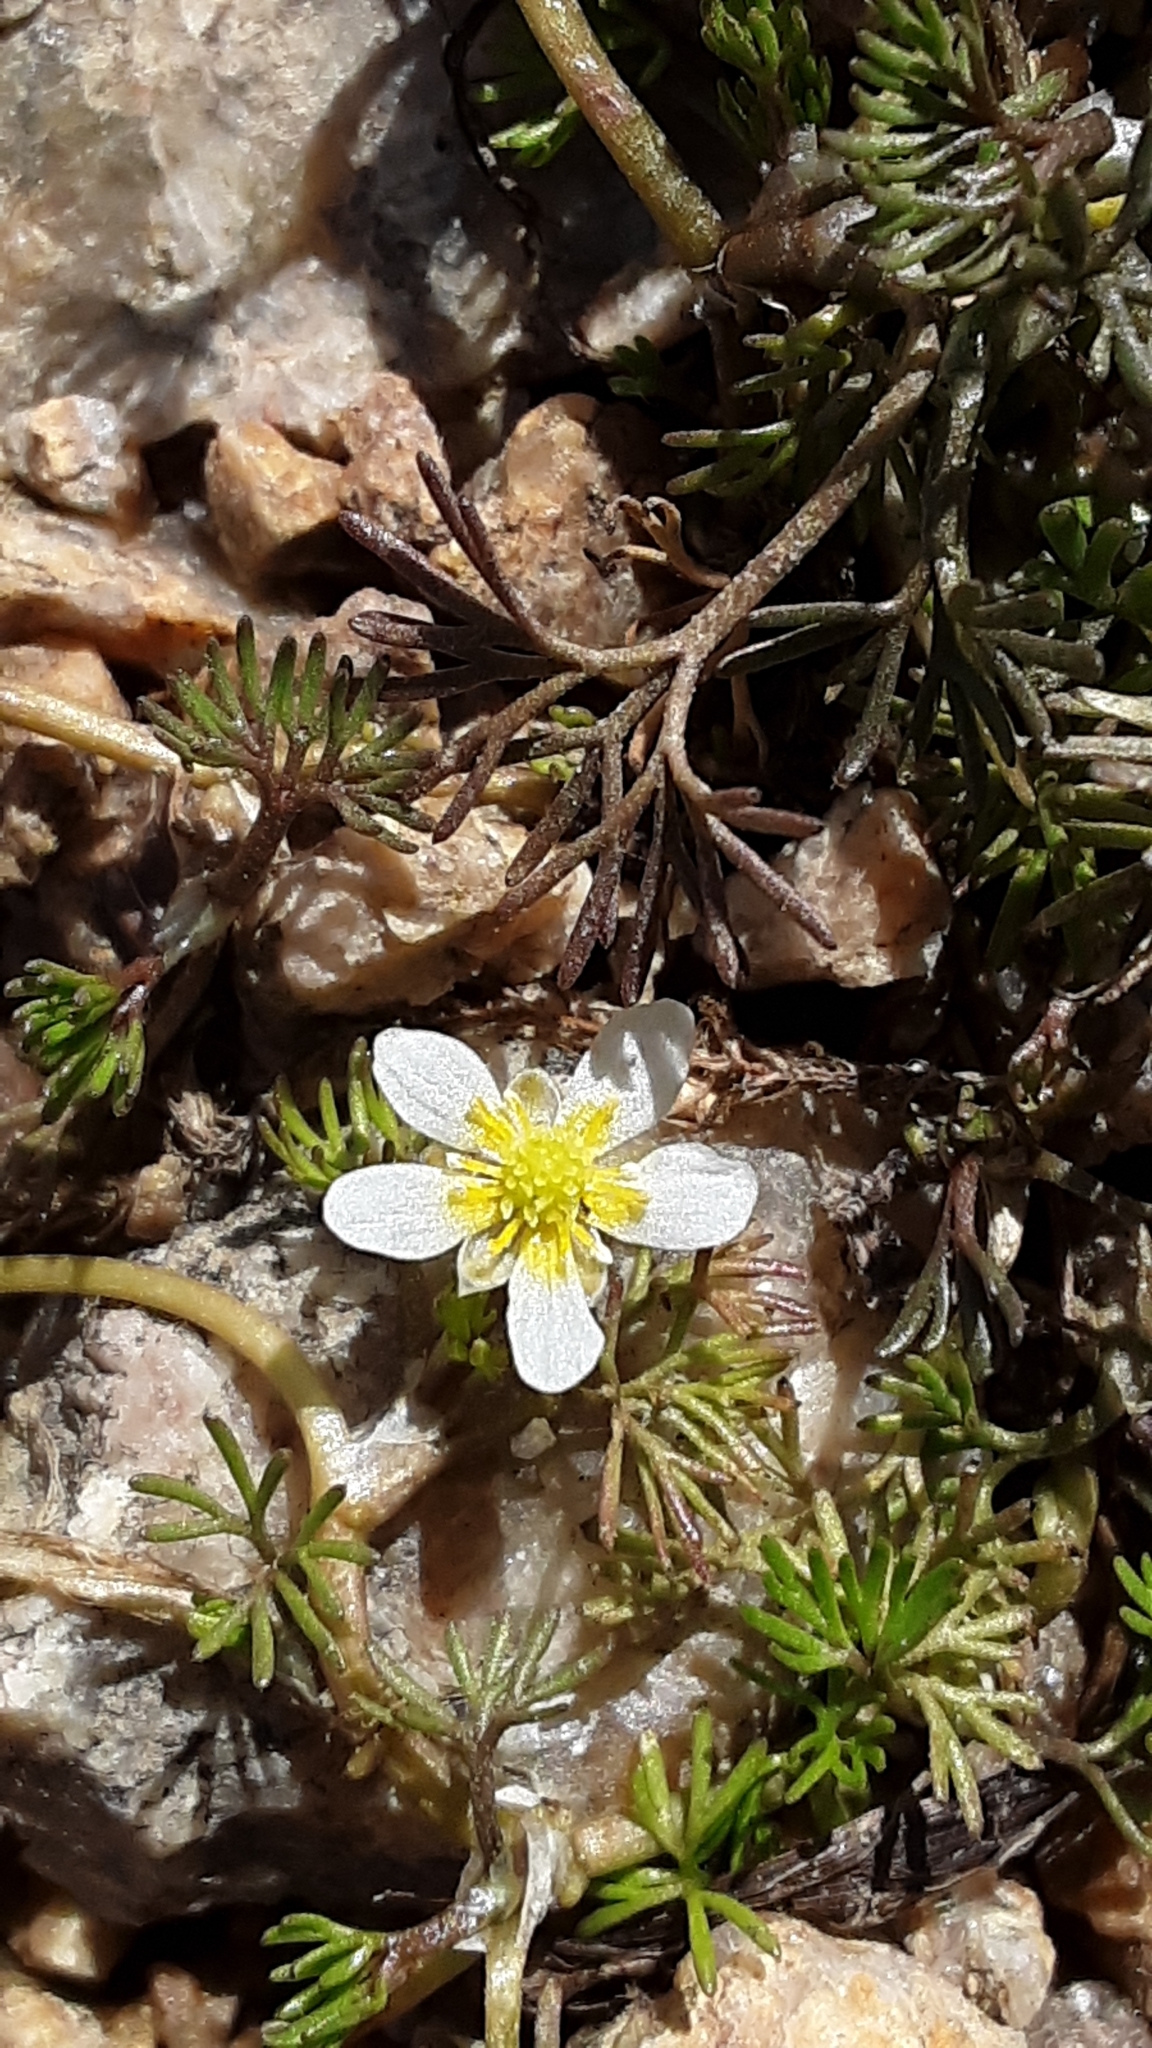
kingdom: Plantae
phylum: Tracheophyta
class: Magnoliopsida
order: Ranunculales
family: Ranunculaceae
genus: Ranunculus
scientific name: Ranunculus aquatilis
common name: Common water-crowfoot
